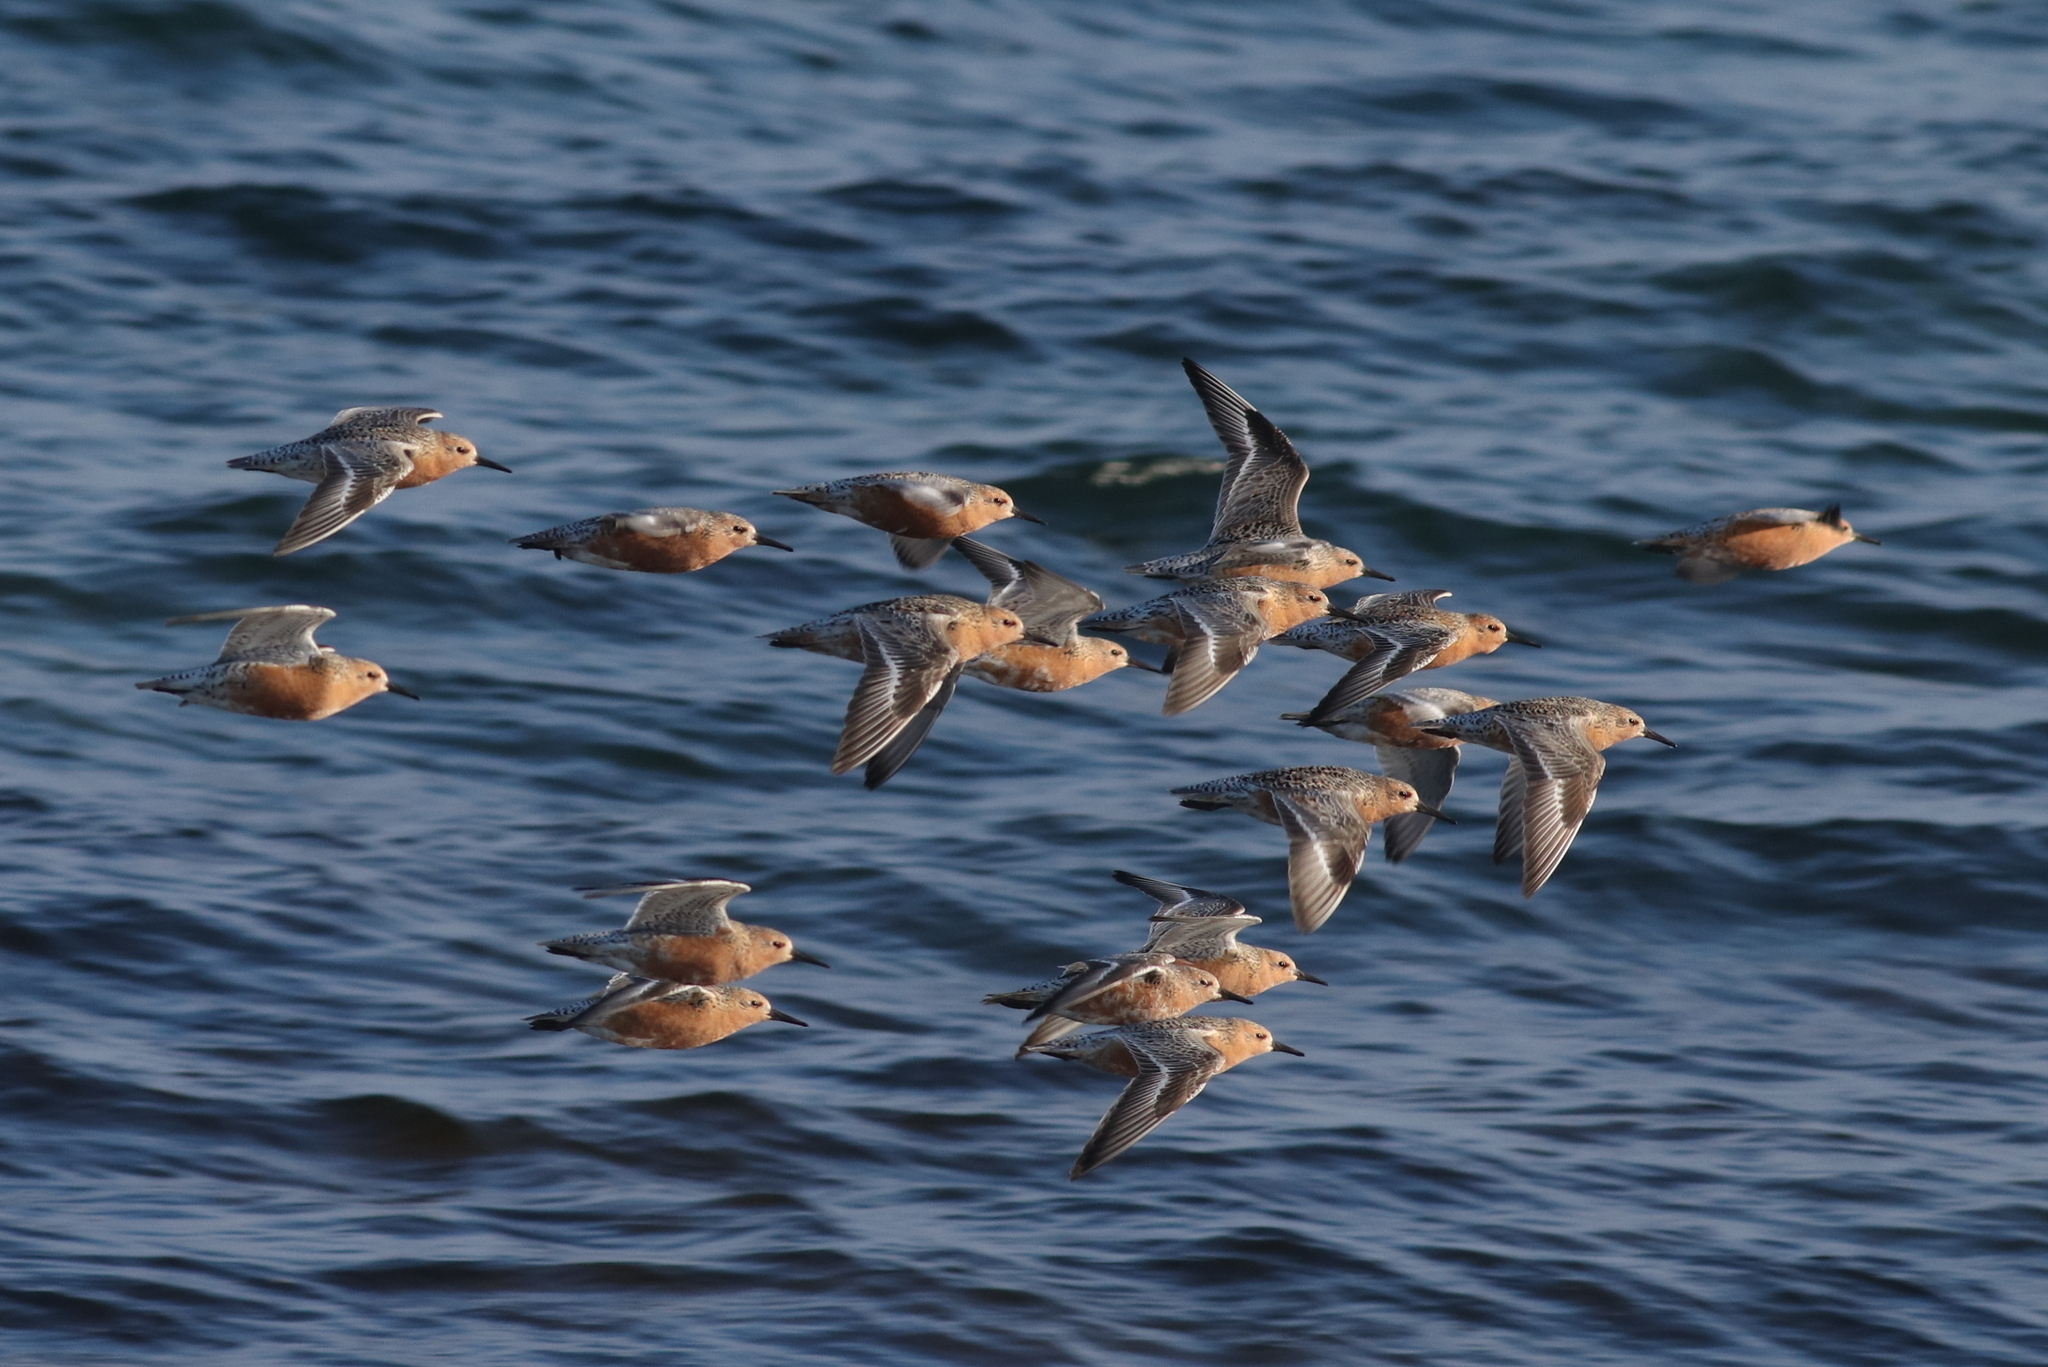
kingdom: Animalia
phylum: Chordata
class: Aves
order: Charadriiformes
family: Scolopacidae
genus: Calidris
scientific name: Calidris canutus
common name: Red knot
